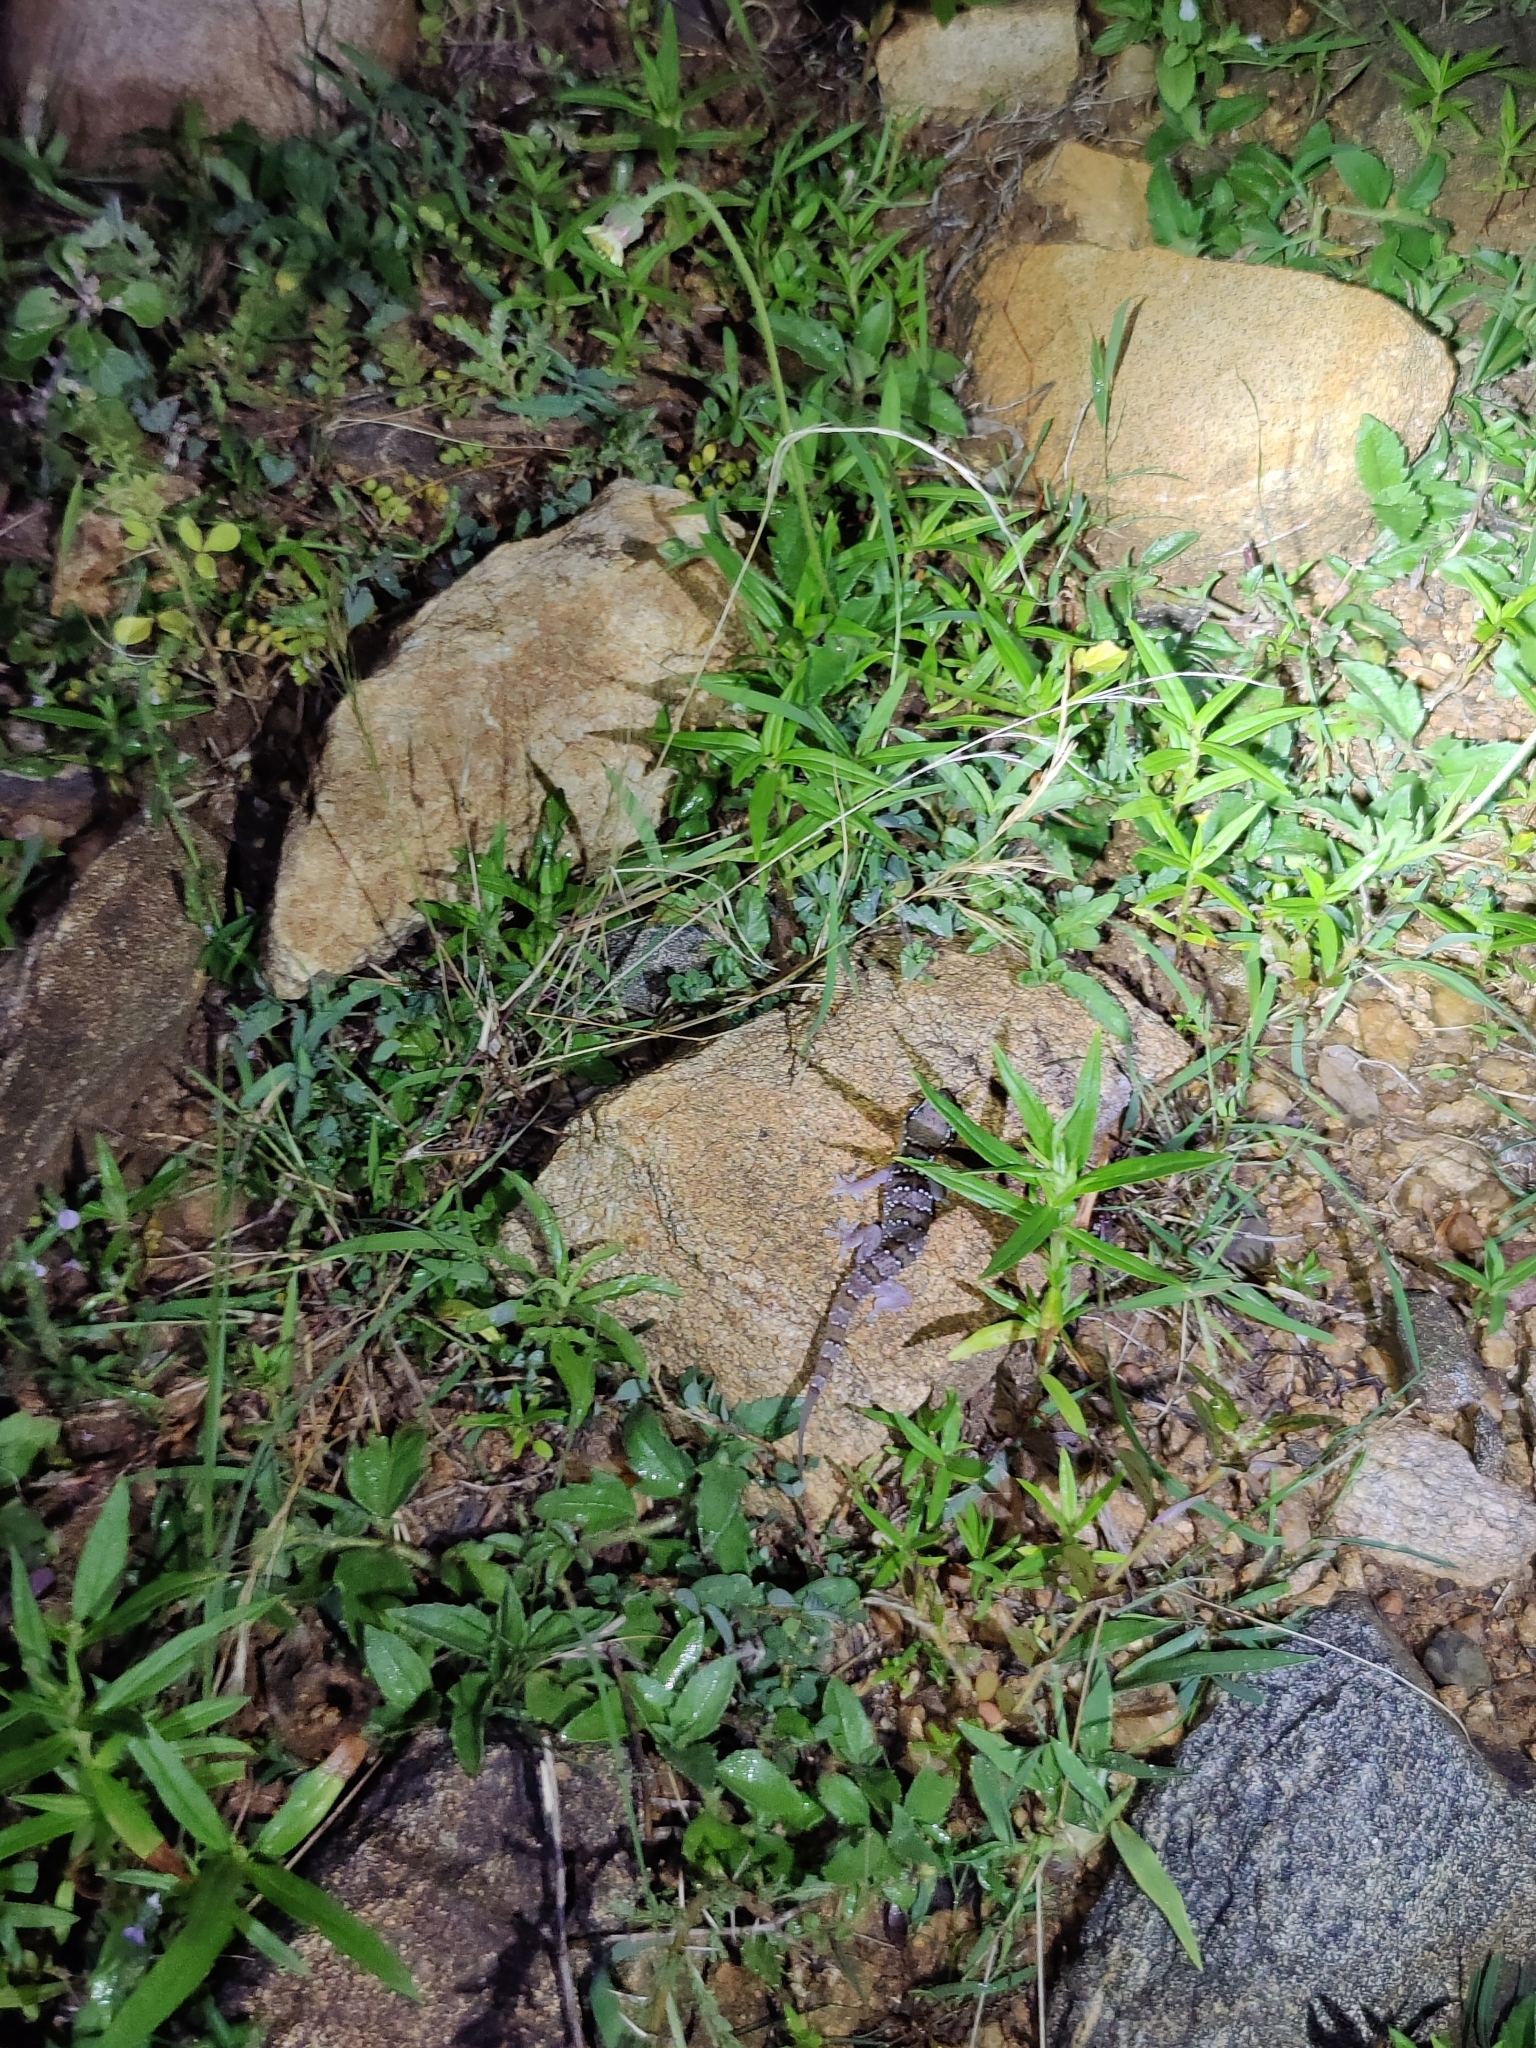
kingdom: Animalia
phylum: Chordata
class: Squamata
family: Gekkonidae
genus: Hemidactylus
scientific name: Hemidactylus whitakeri
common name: Whitaker’s termite hill gecko
